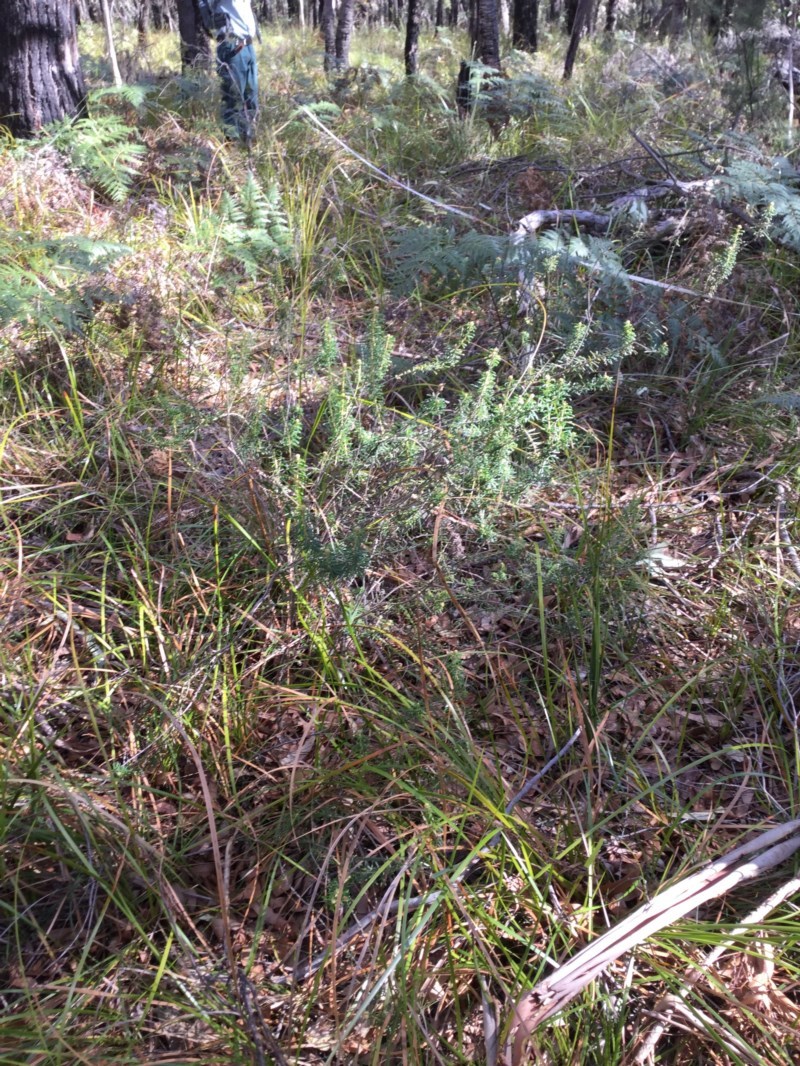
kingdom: Plantae
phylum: Tracheophyta
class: Magnoliopsida
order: Apiales
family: Araliaceae
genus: Astrotricha
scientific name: Astrotricha
